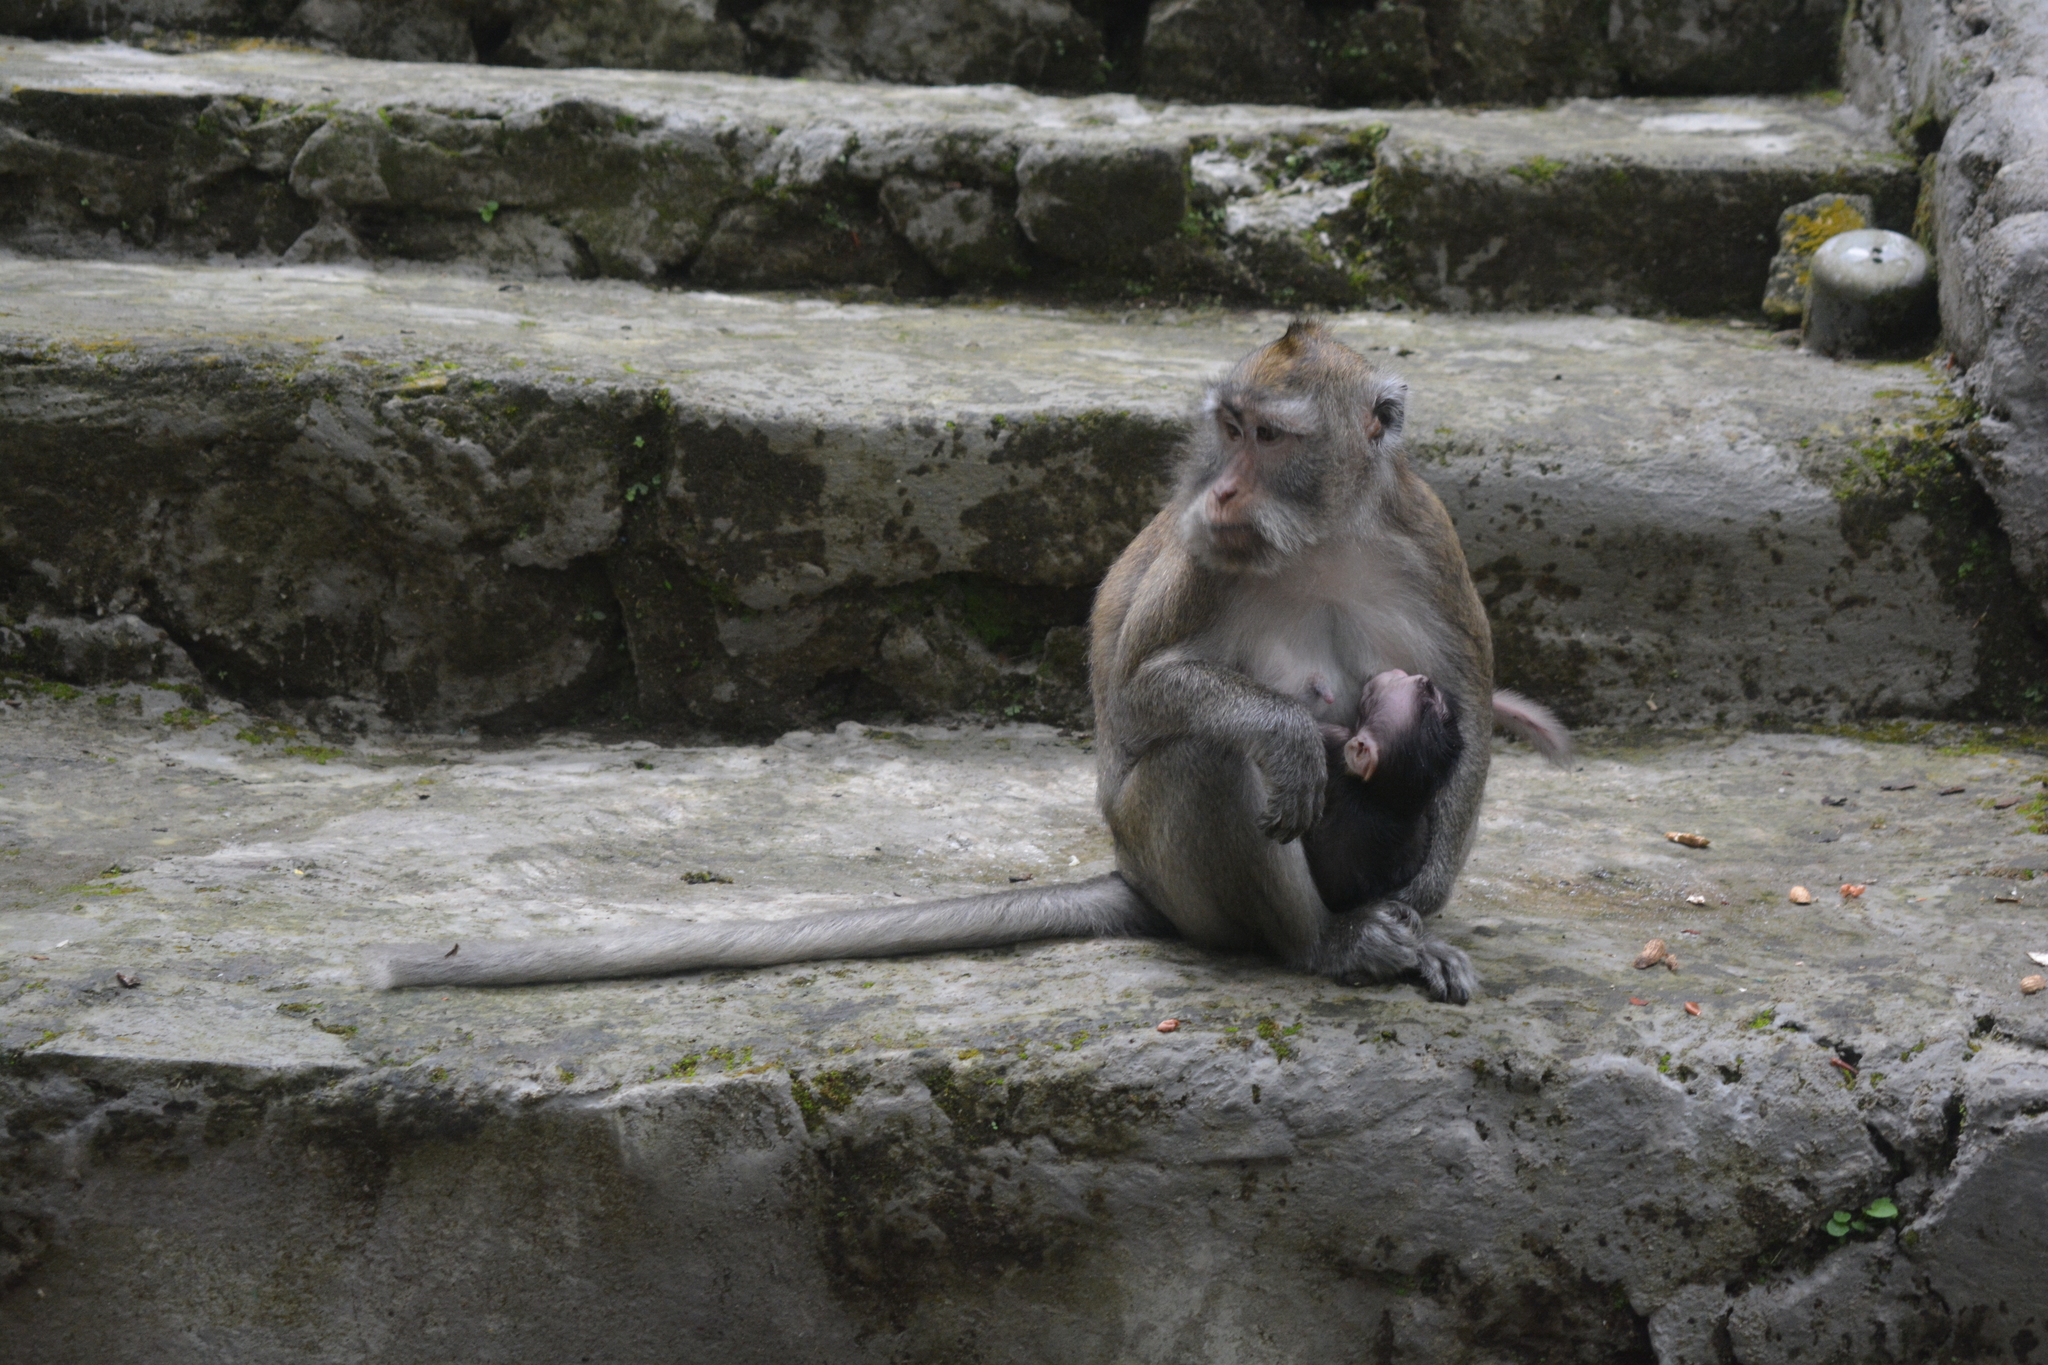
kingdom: Animalia
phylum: Chordata
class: Mammalia
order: Primates
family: Cercopithecidae
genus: Macaca
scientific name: Macaca fascicularis
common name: Crab-eating macaque
